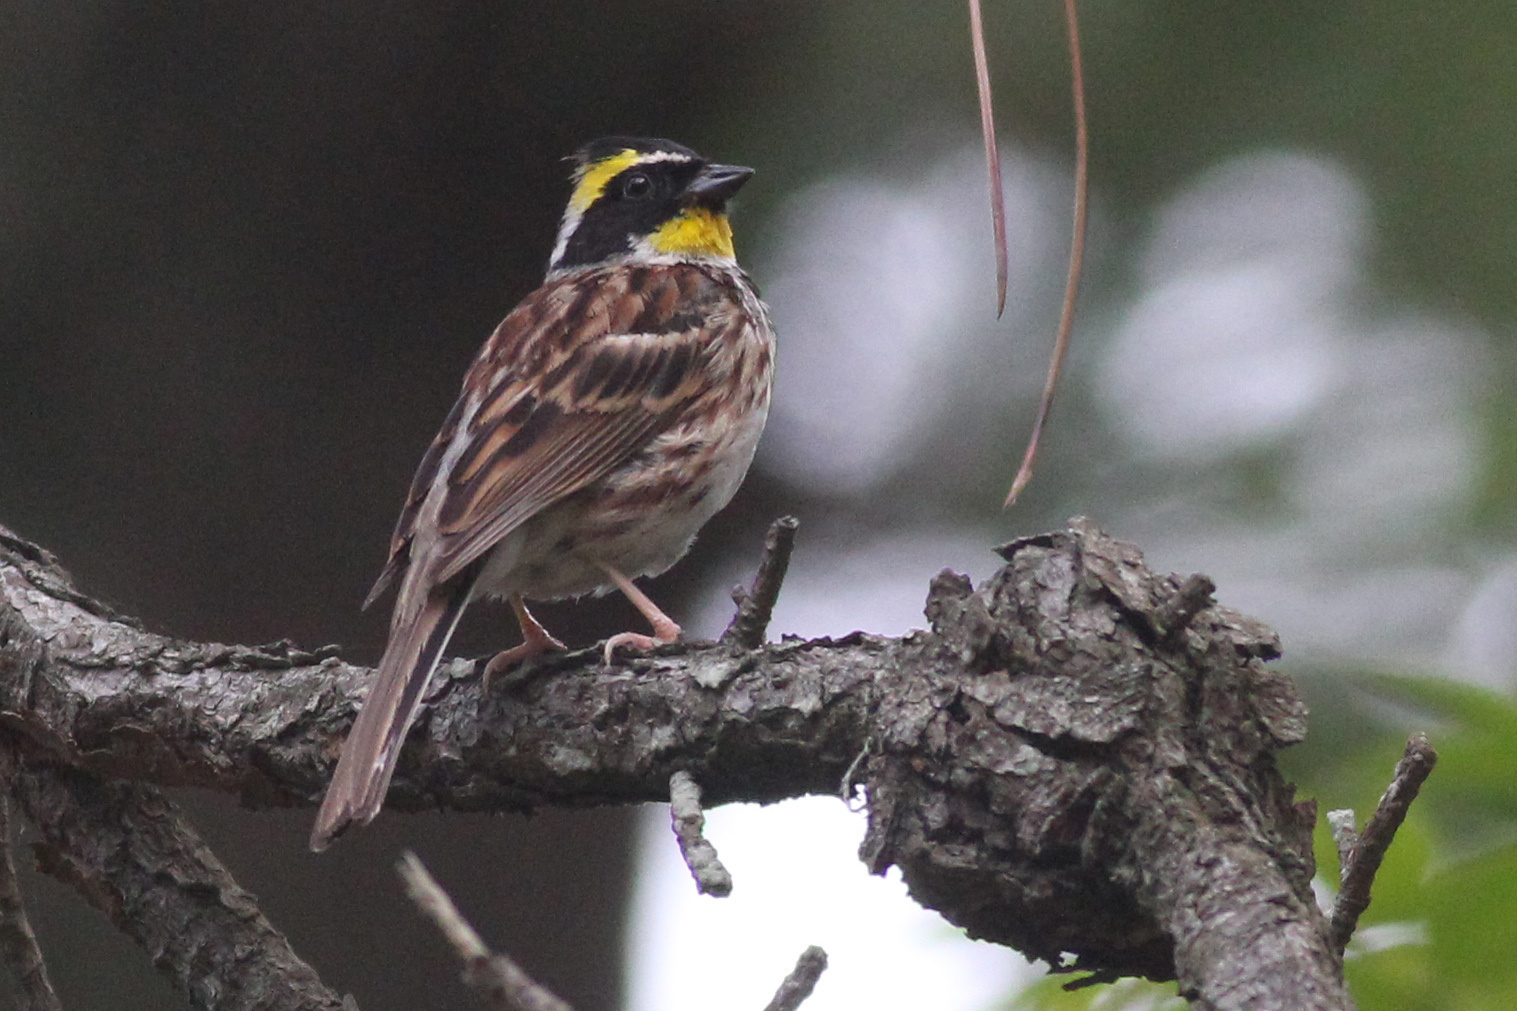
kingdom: Animalia
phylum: Chordata
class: Aves
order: Passeriformes
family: Emberizidae
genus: Emberiza
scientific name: Emberiza elegans
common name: Yellow-throated bunting
